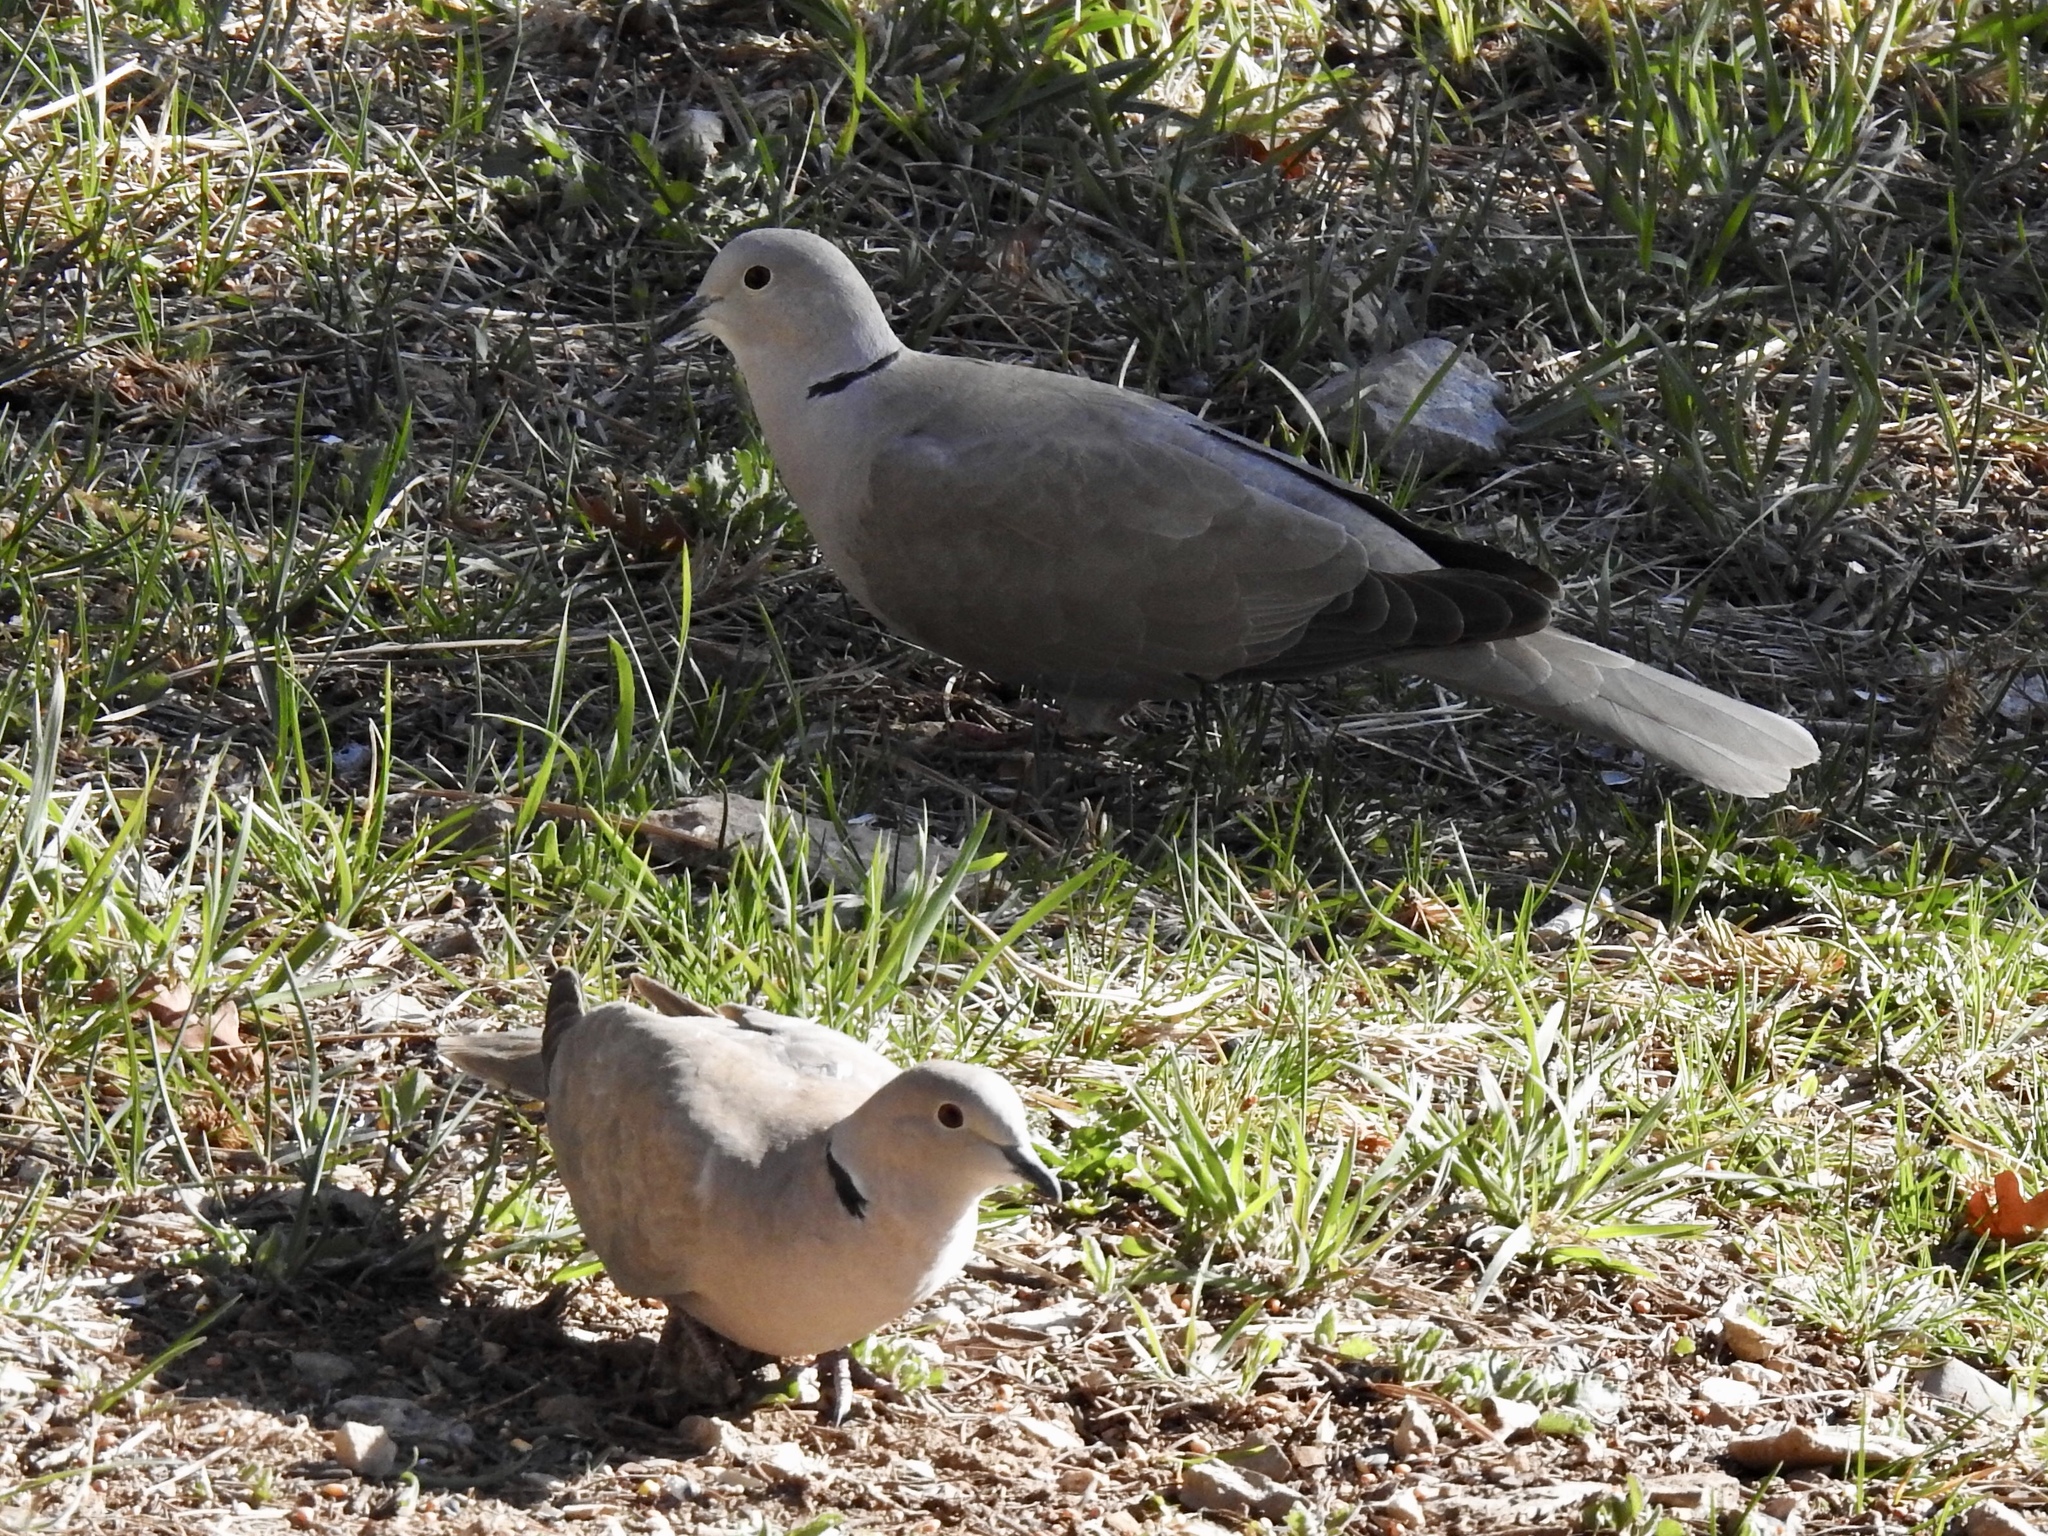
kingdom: Animalia
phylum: Chordata
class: Aves
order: Columbiformes
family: Columbidae
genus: Streptopelia
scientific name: Streptopelia decaocto
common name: Eurasian collared dove
